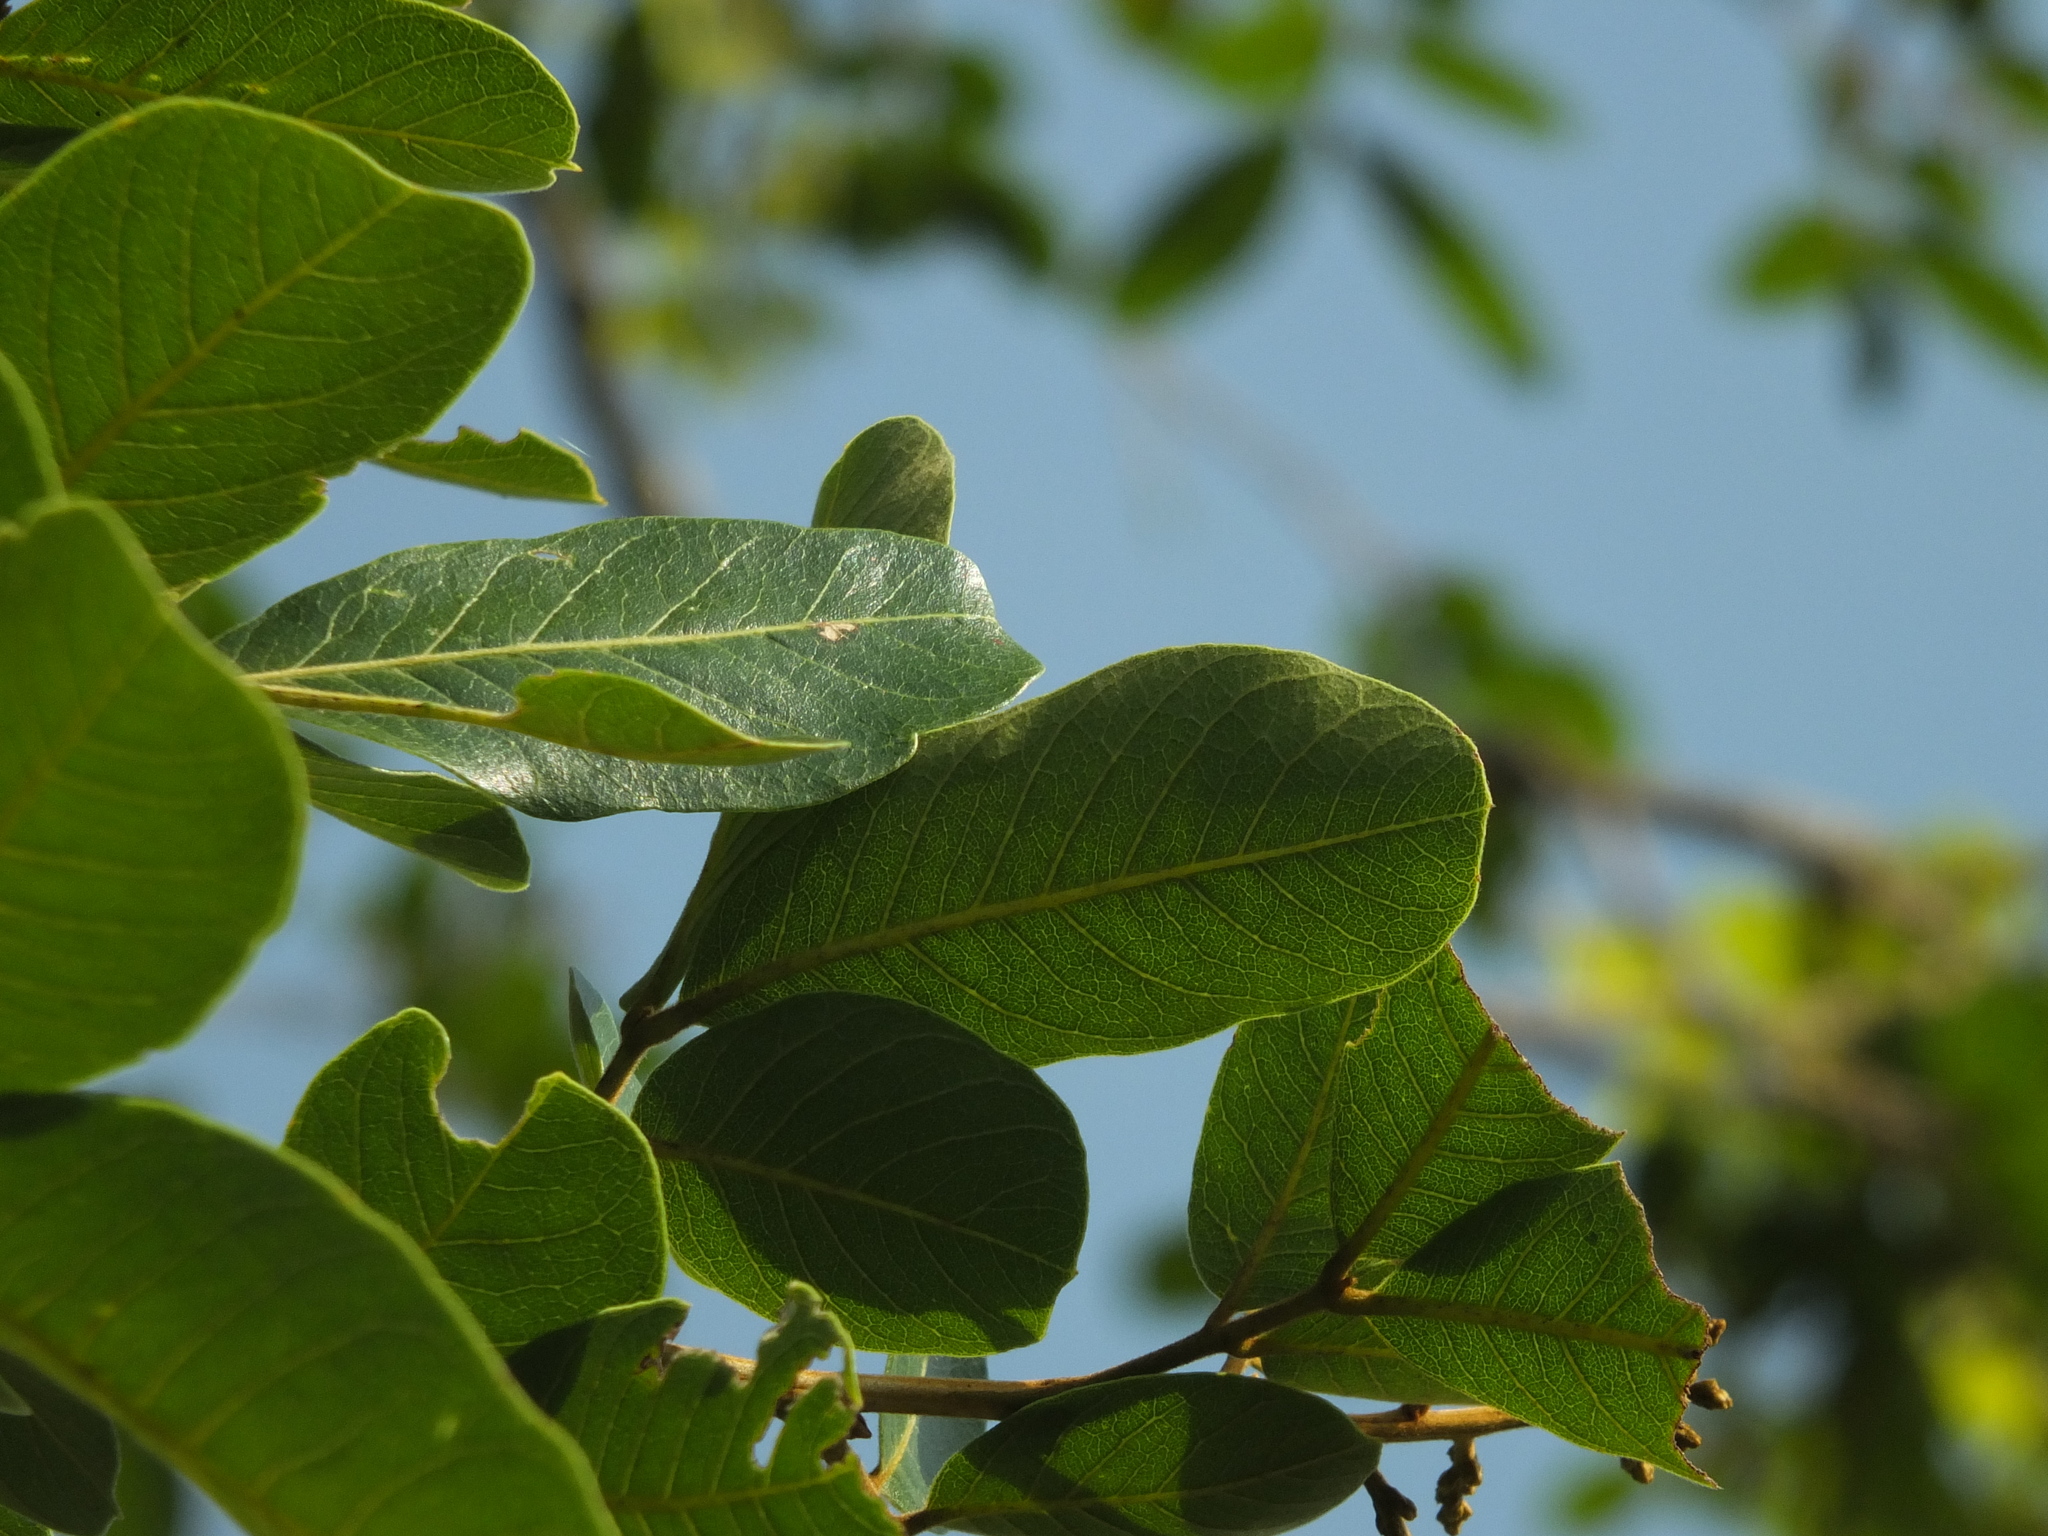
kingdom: Plantae
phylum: Tracheophyta
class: Magnoliopsida
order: Sapindales
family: Sapindaceae
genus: Sapindus
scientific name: Sapindus emarginatus
